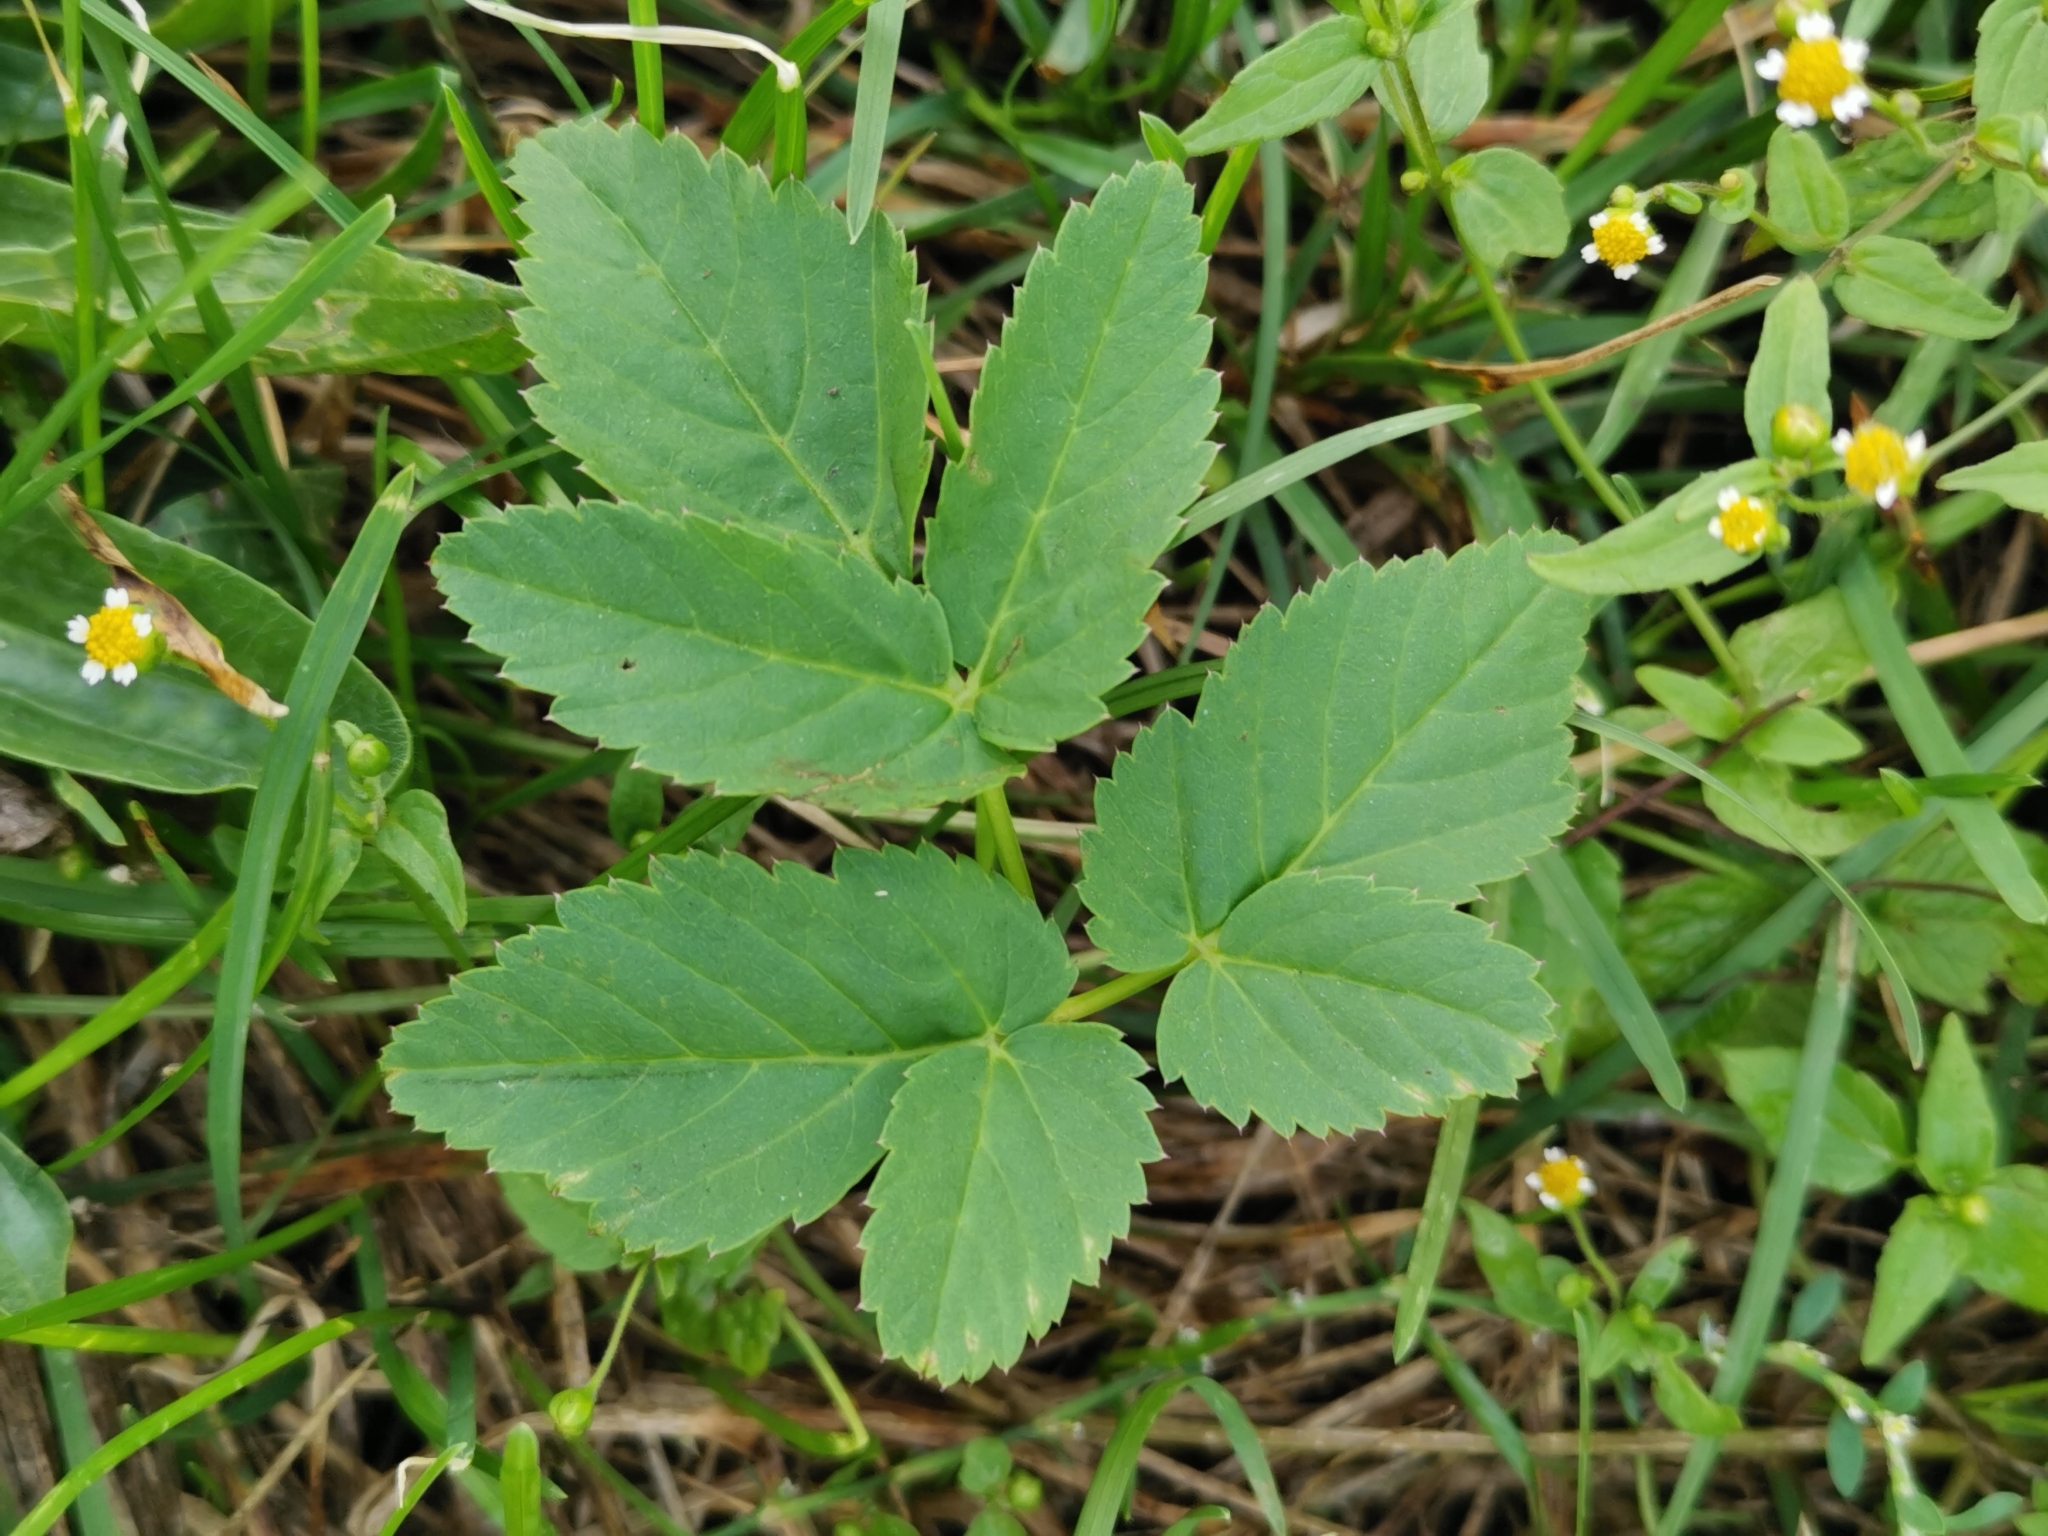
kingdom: Plantae
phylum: Tracheophyta
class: Magnoliopsida
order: Apiales
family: Apiaceae
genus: Aegopodium
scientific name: Aegopodium podagraria
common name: Ground-elder
